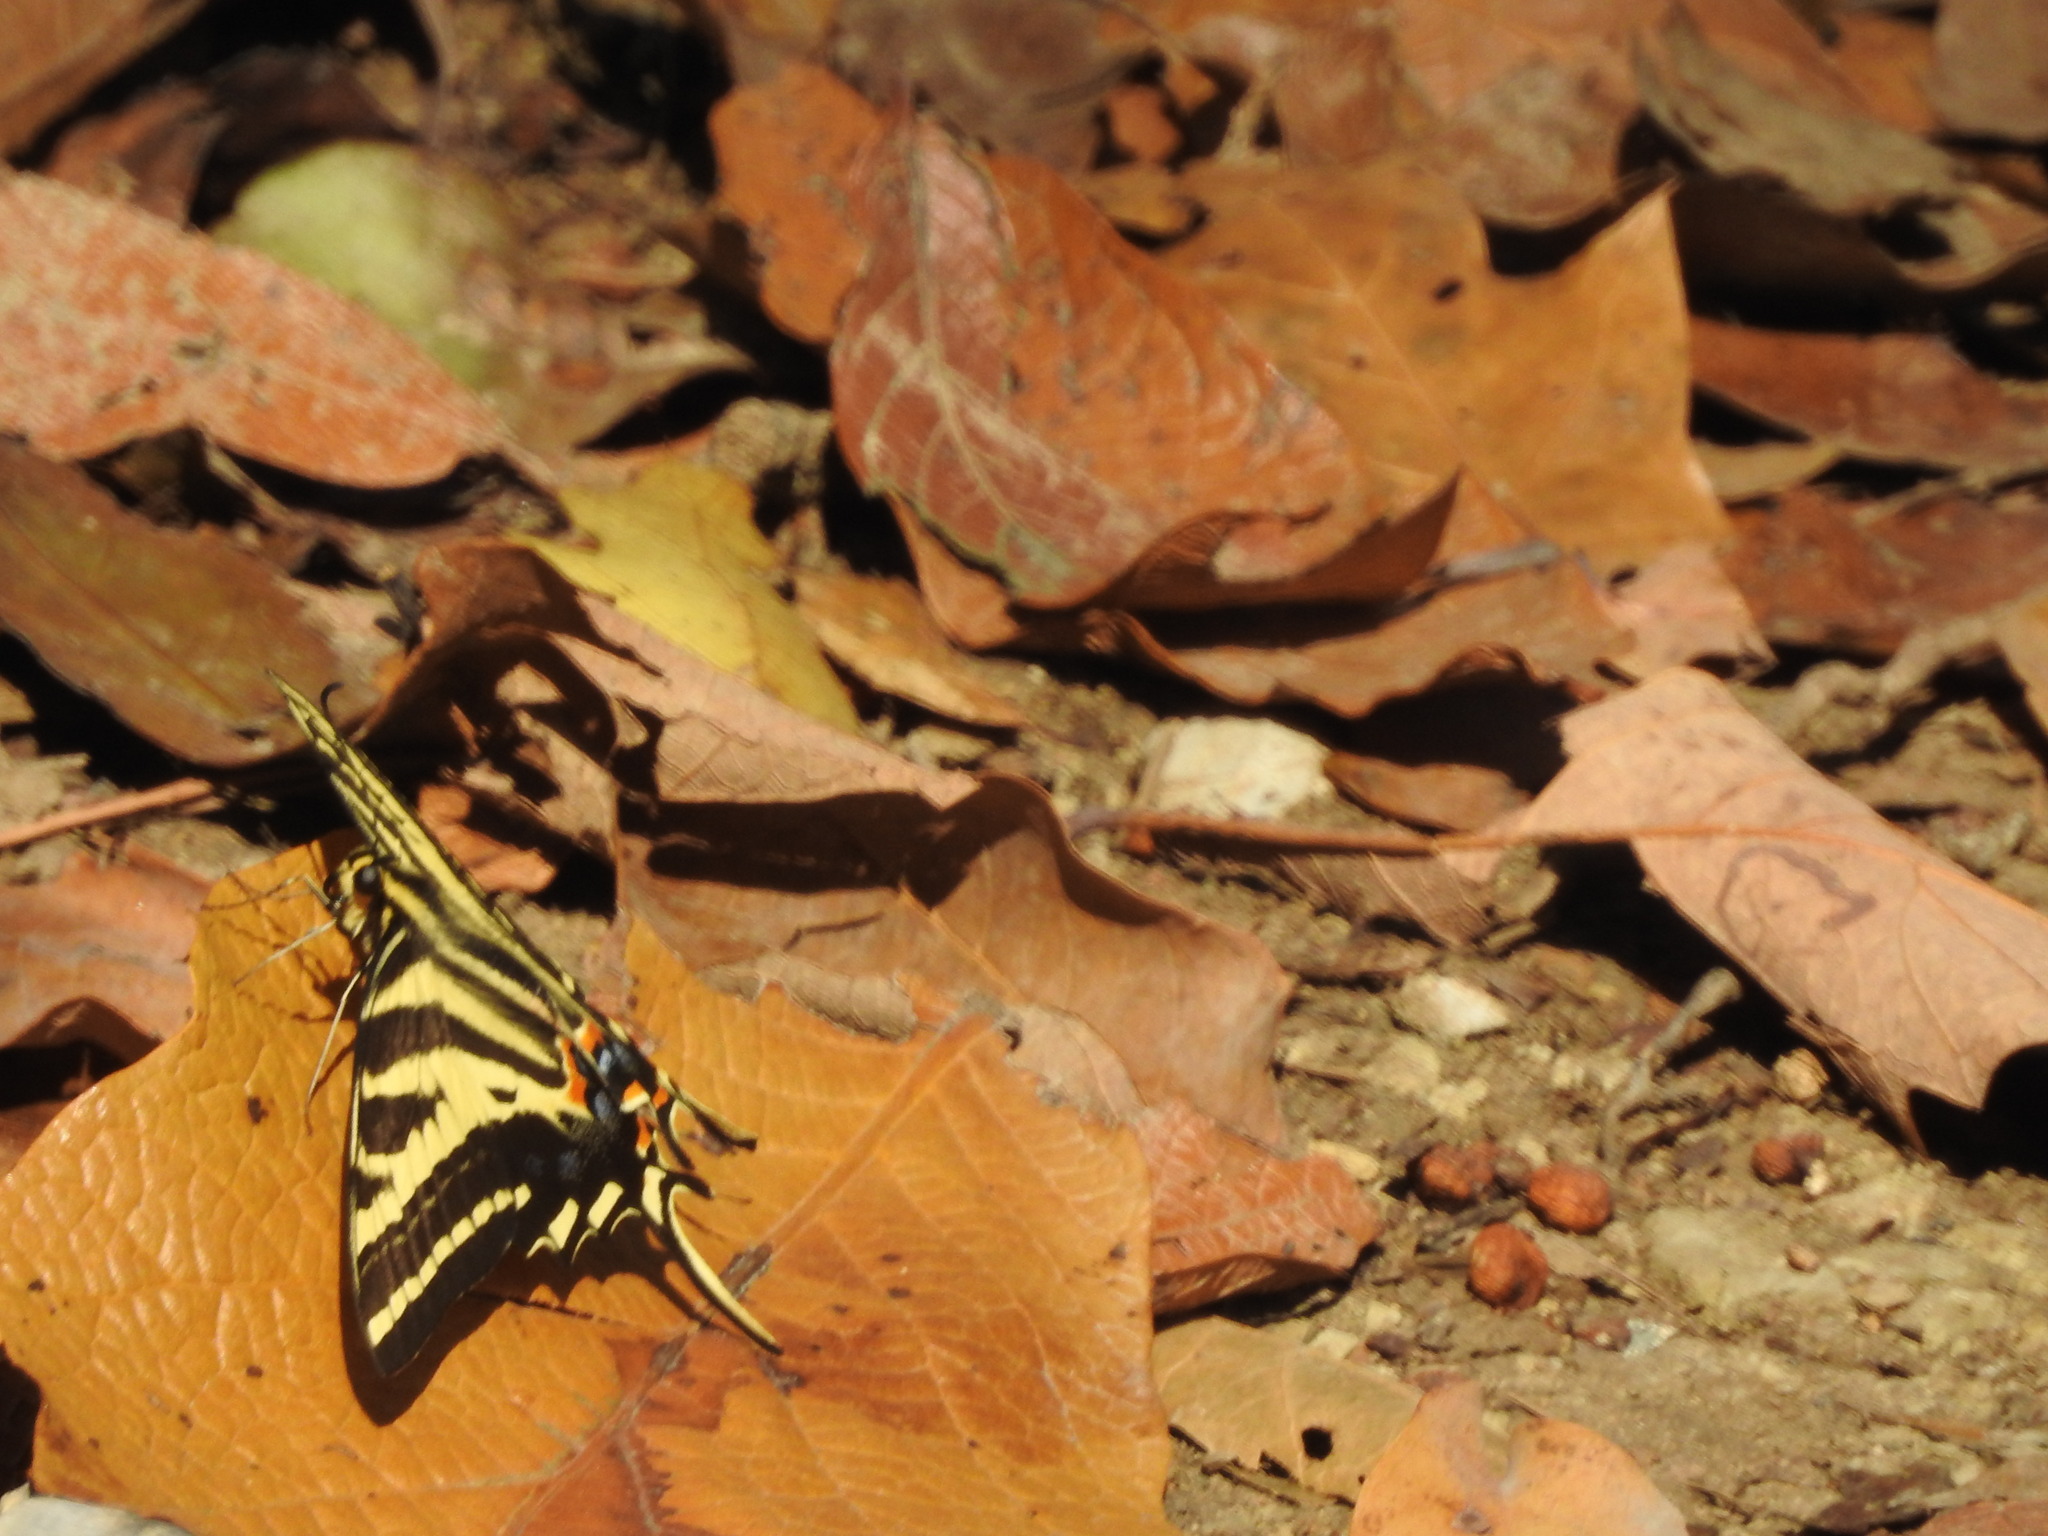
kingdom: Animalia
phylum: Arthropoda
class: Insecta
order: Lepidoptera
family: Papilionidae
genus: Papilio
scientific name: Papilio pilumnus
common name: Three-tailed tiger swallowtail
